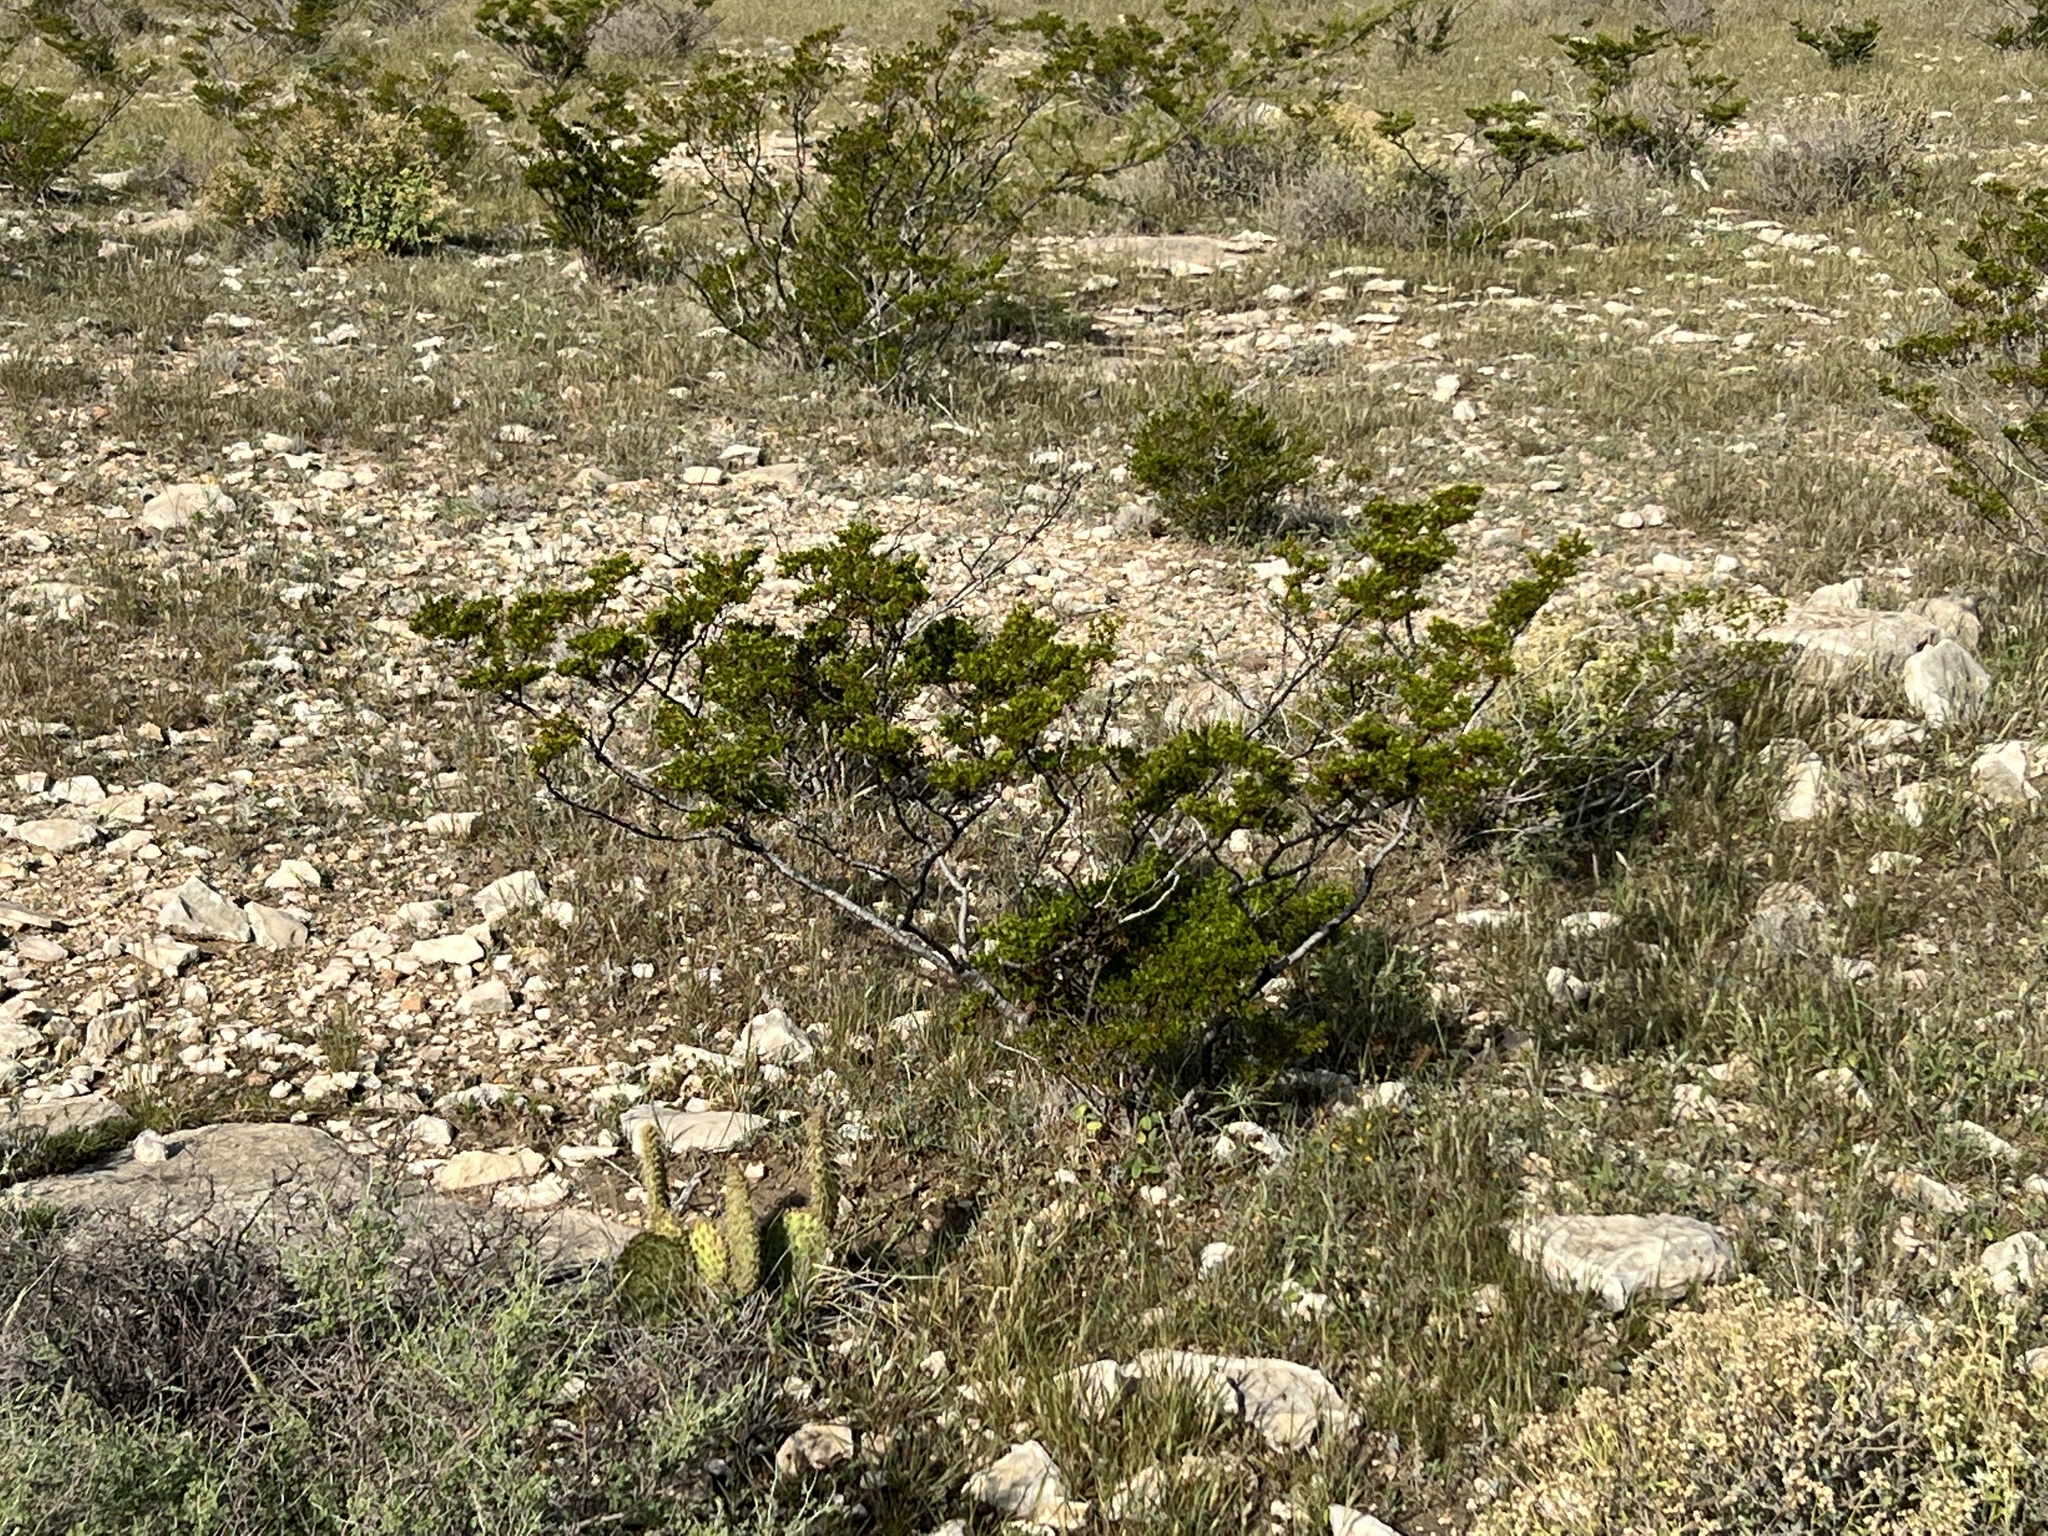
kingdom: Plantae
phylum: Tracheophyta
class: Magnoliopsida
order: Zygophyllales
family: Zygophyllaceae
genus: Larrea
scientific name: Larrea tridentata
